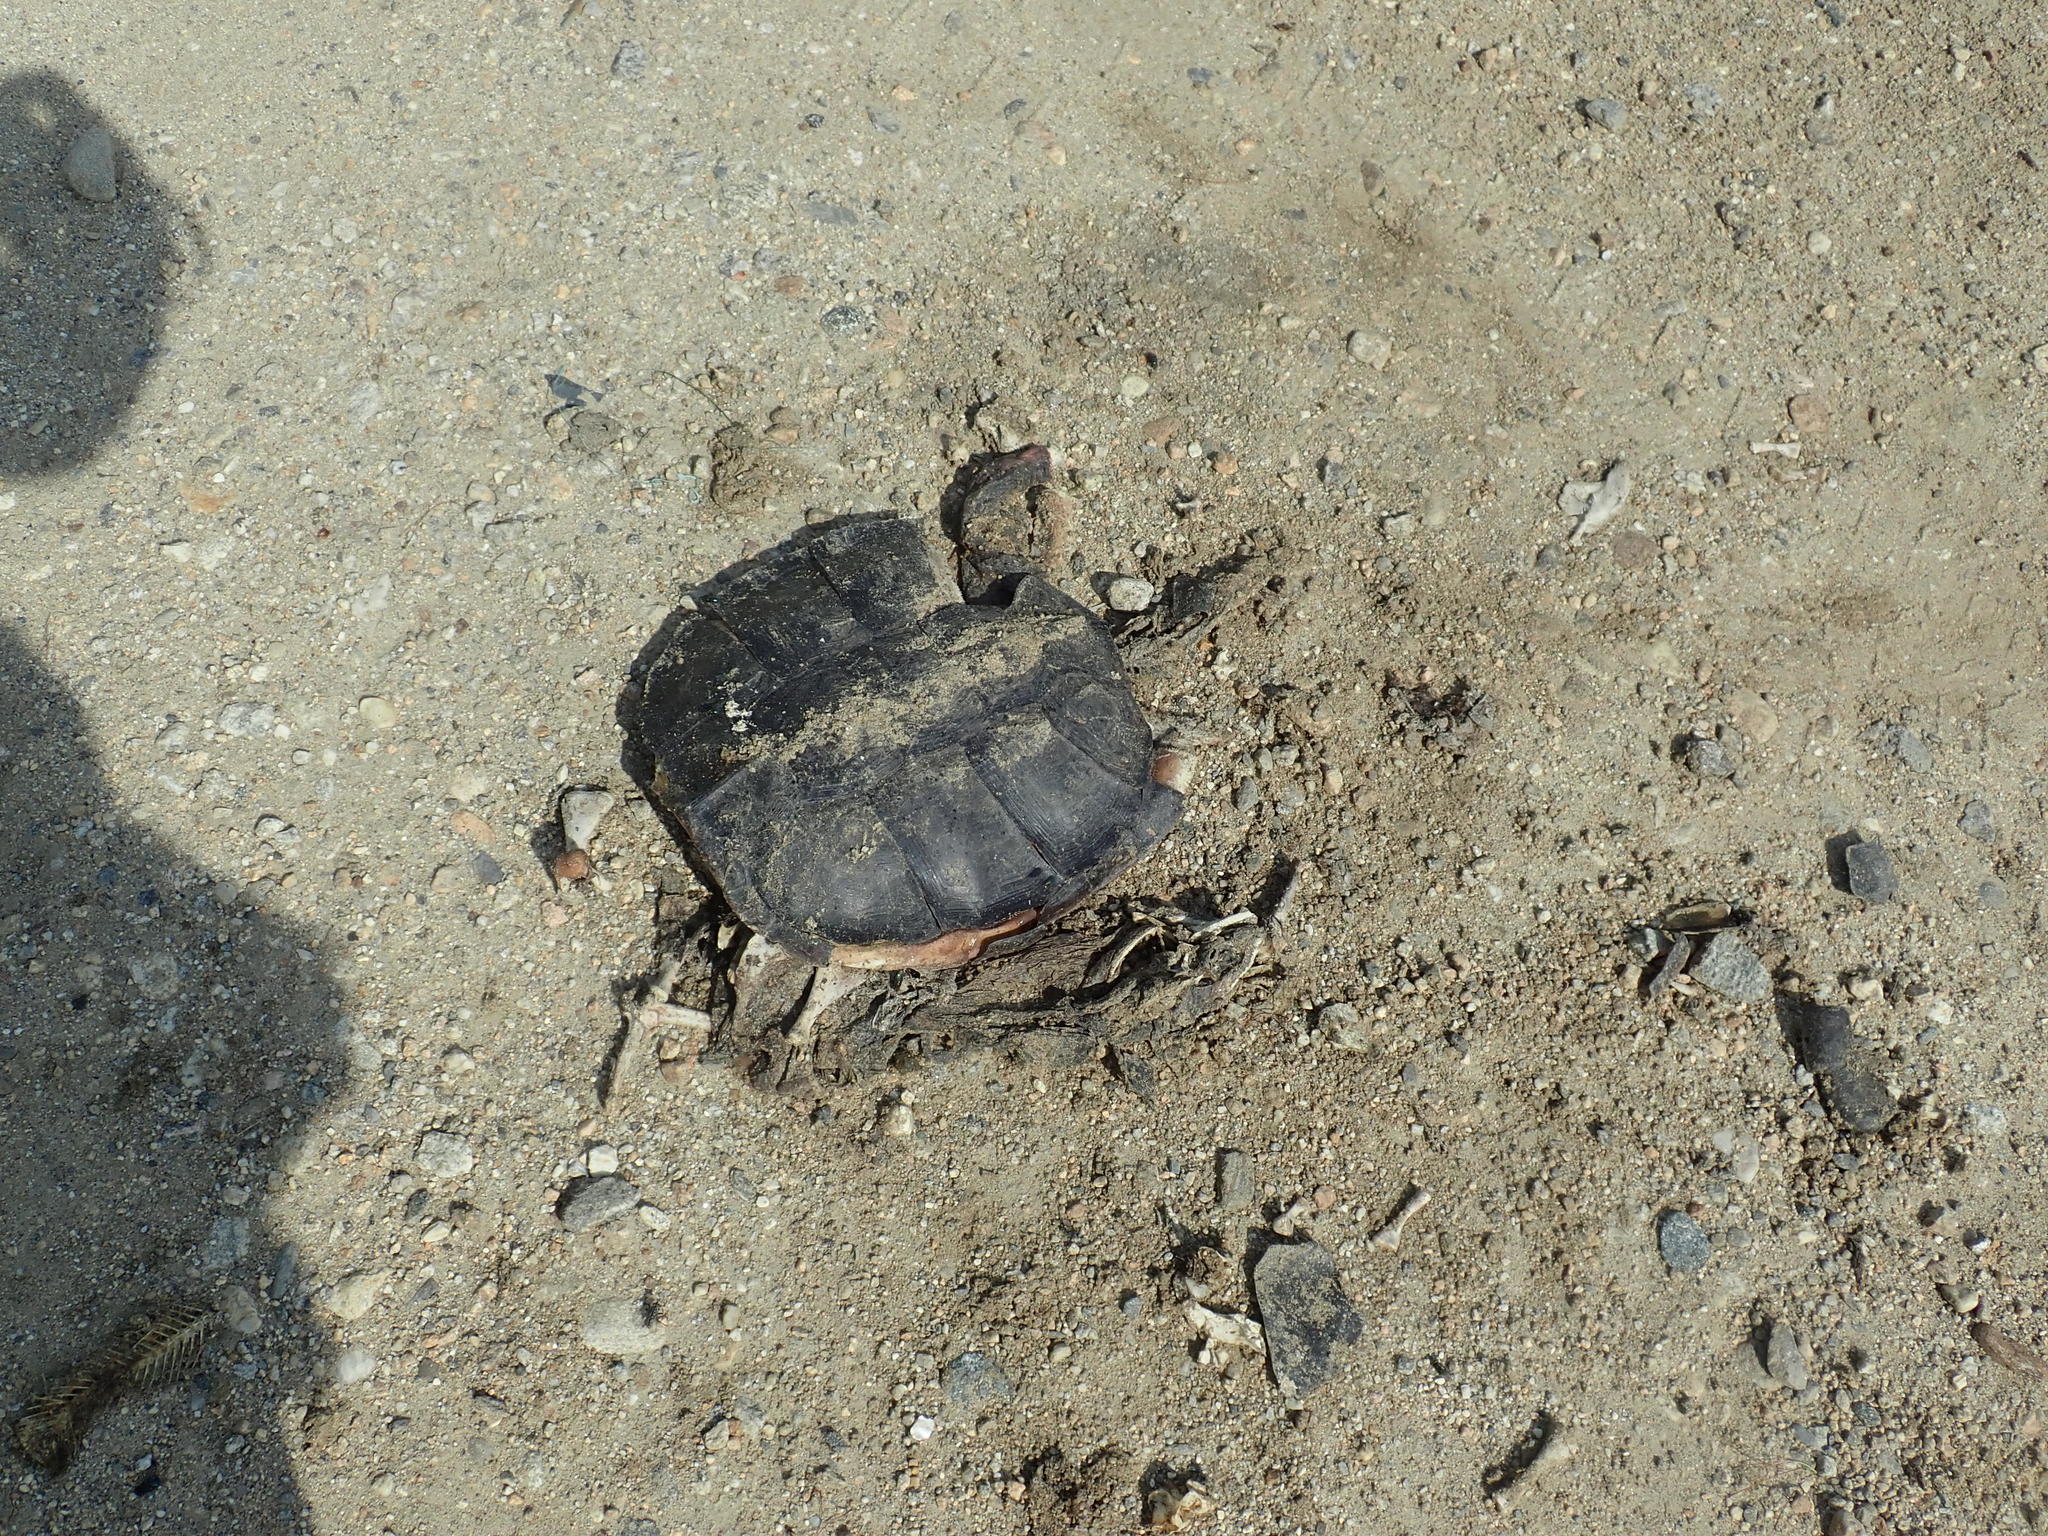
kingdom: Animalia
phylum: Chordata
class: Testudines
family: Chelydridae
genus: Chelydra
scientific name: Chelydra serpentina
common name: Common snapping turtle
